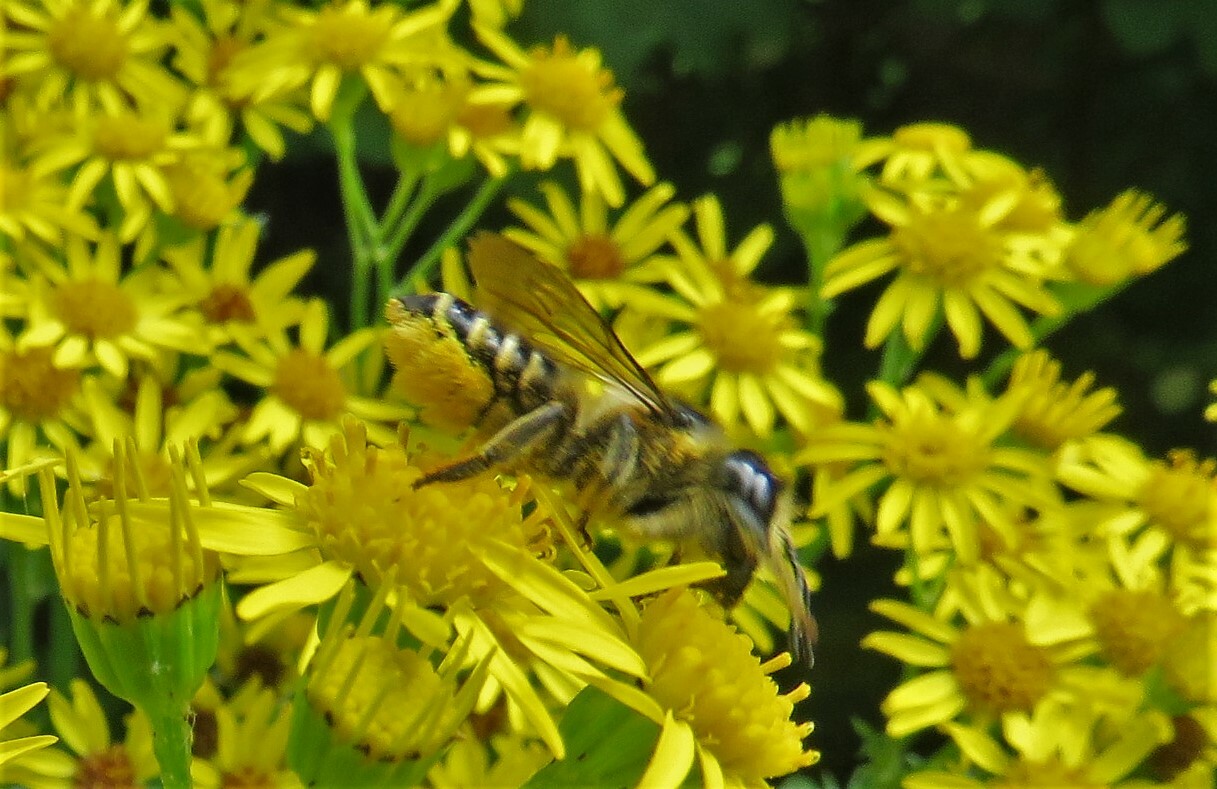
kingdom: Animalia
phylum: Arthropoda
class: Insecta
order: Hymenoptera
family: Megachilidae
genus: Megachile
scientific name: Megachile inermis
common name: Unarmed leafcutter bee
